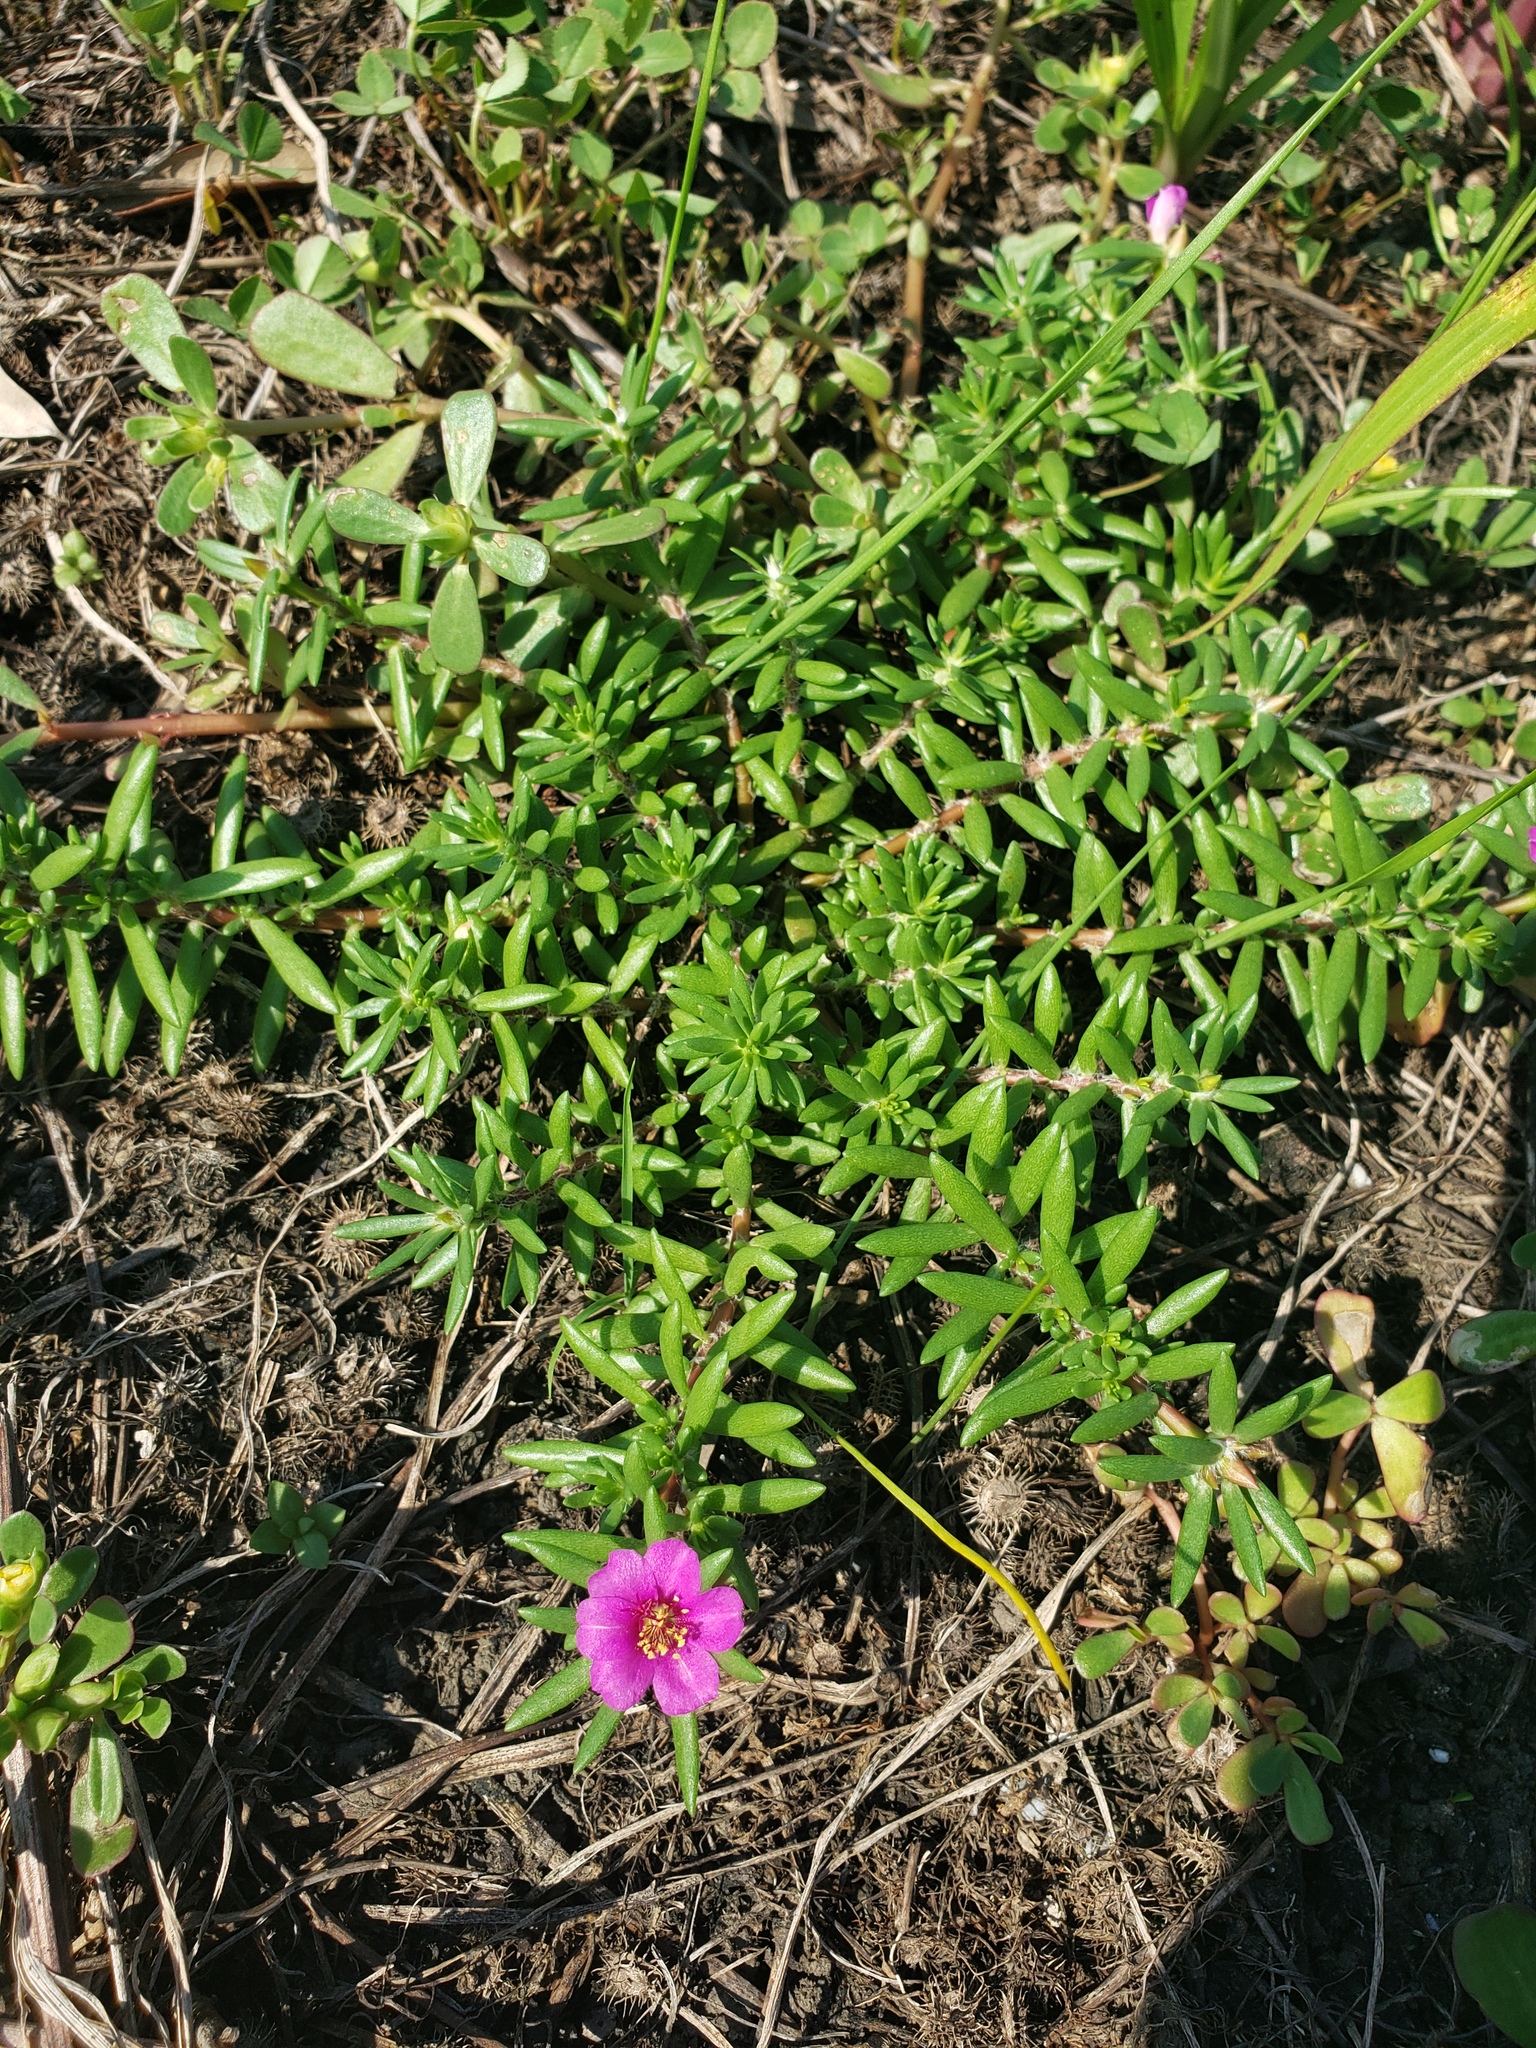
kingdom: Plantae
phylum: Tracheophyta
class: Magnoliopsida
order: Caryophyllales
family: Portulacaceae
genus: Portulaca
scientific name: Portulaca pilosa
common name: Kiss me quick
